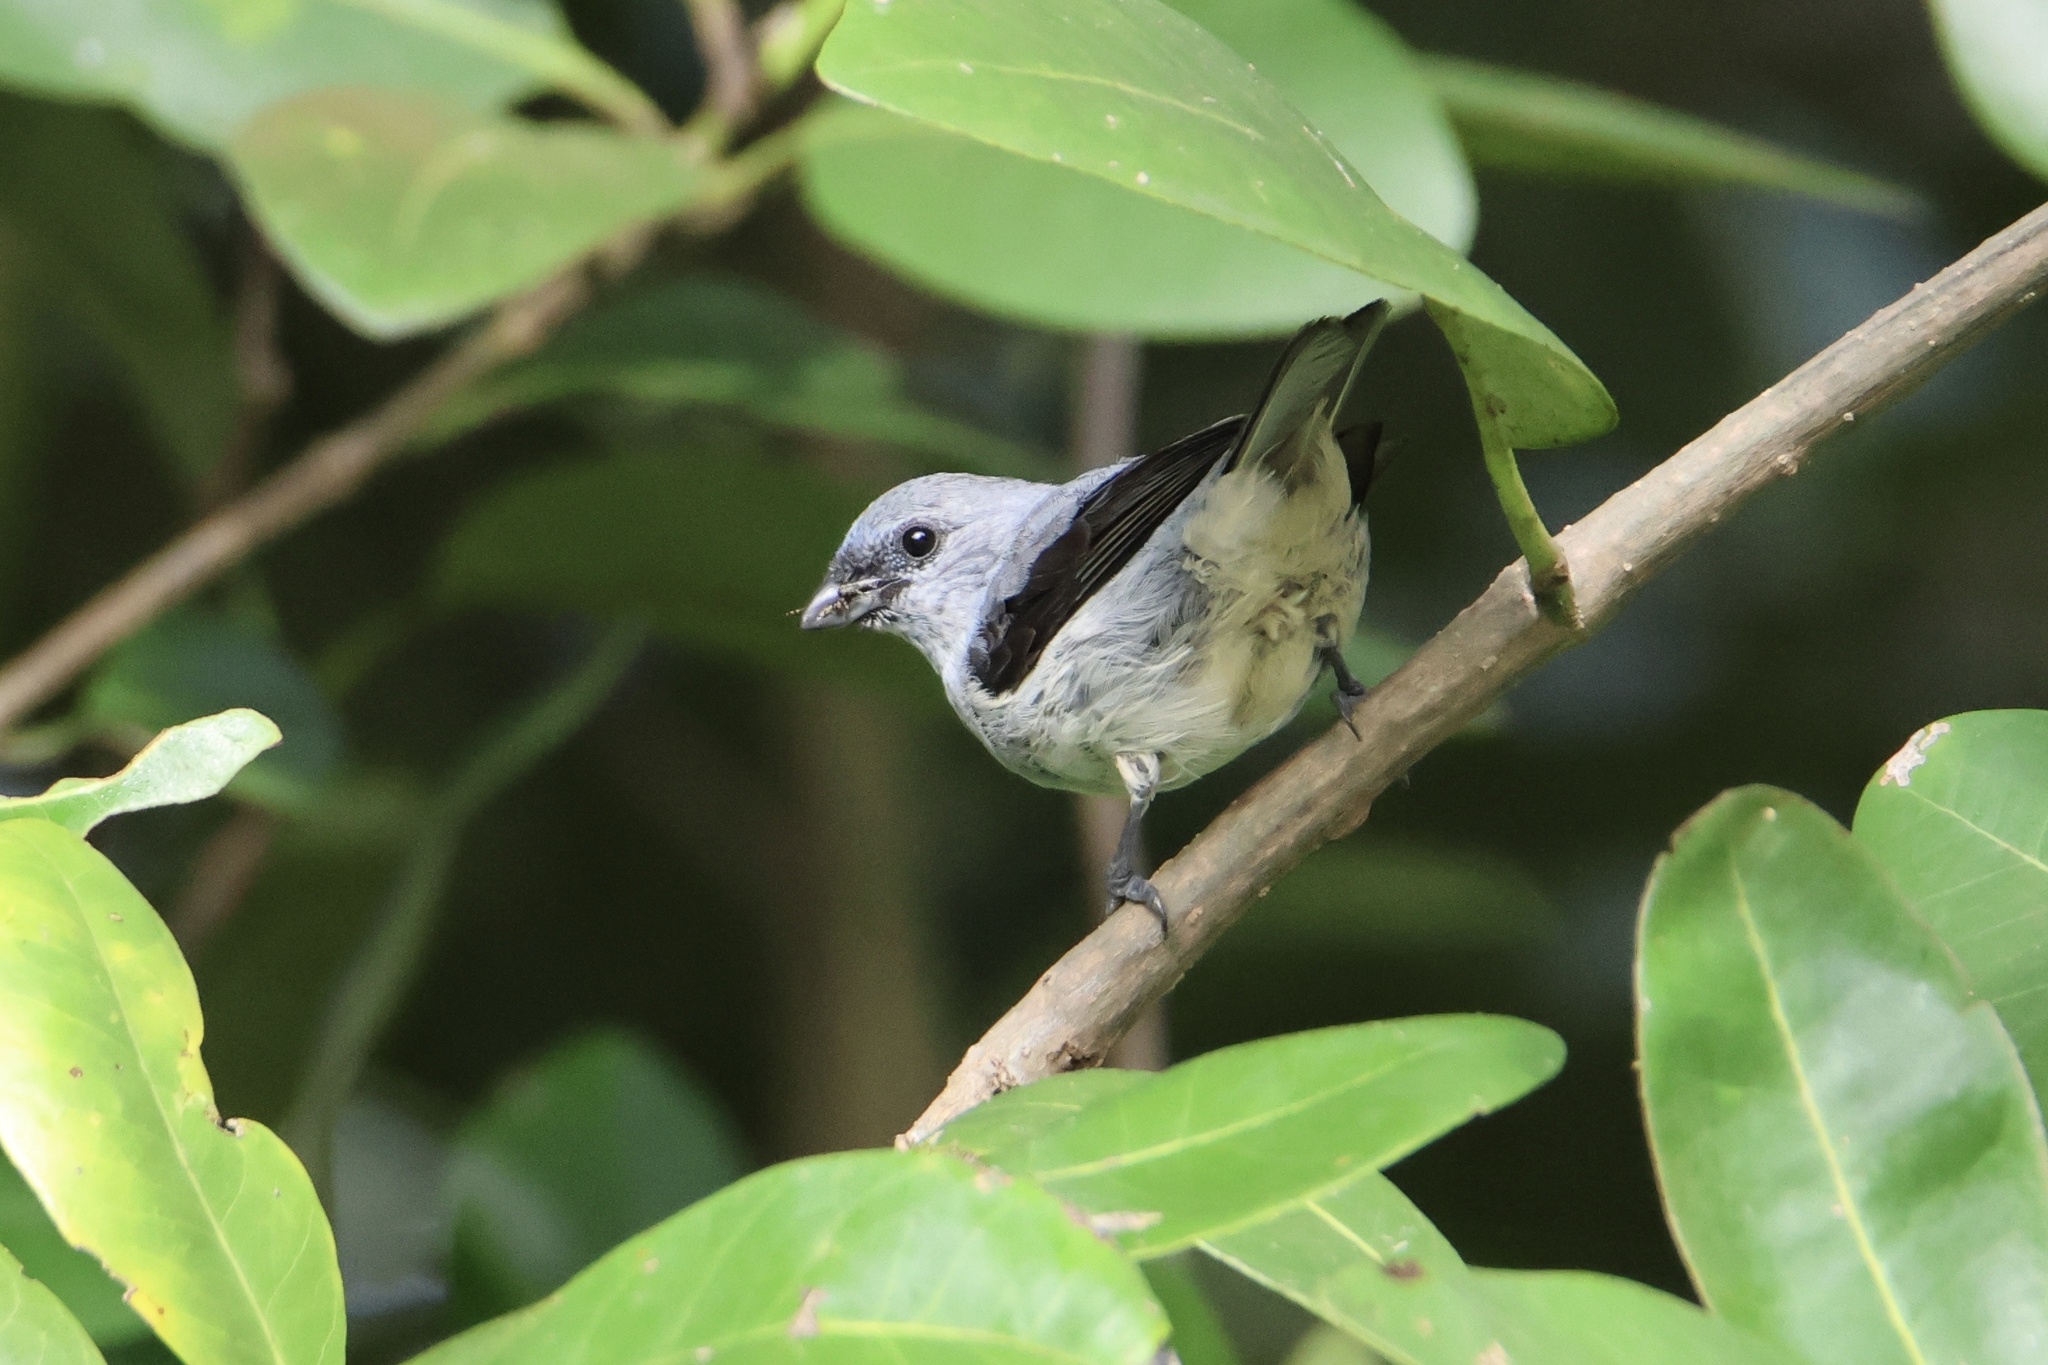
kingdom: Animalia
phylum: Chordata
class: Aves
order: Passeriformes
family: Thraupidae
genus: Tangara
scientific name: Tangara inornata
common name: Plain-colored tanager
